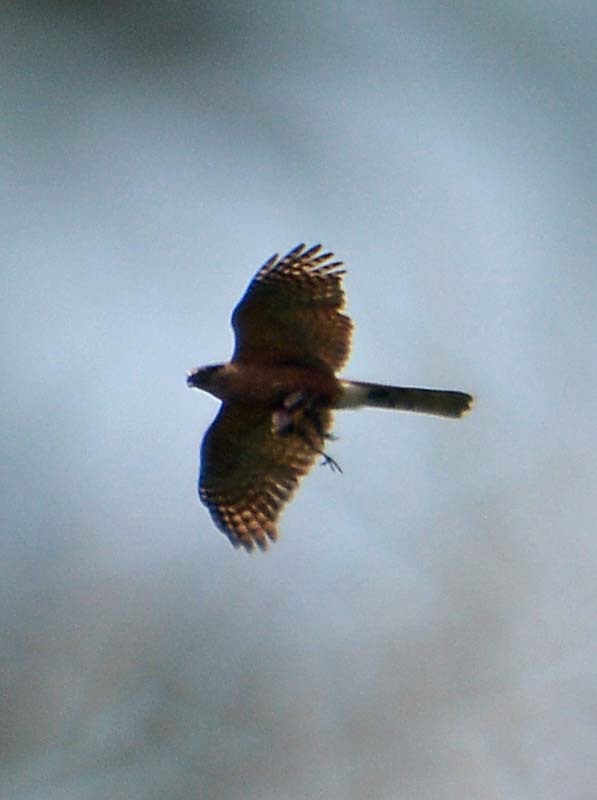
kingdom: Animalia
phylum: Chordata
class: Aves
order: Accipitriformes
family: Accipitridae
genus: Accipiter
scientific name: Accipiter cooperii
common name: Cooper's hawk
